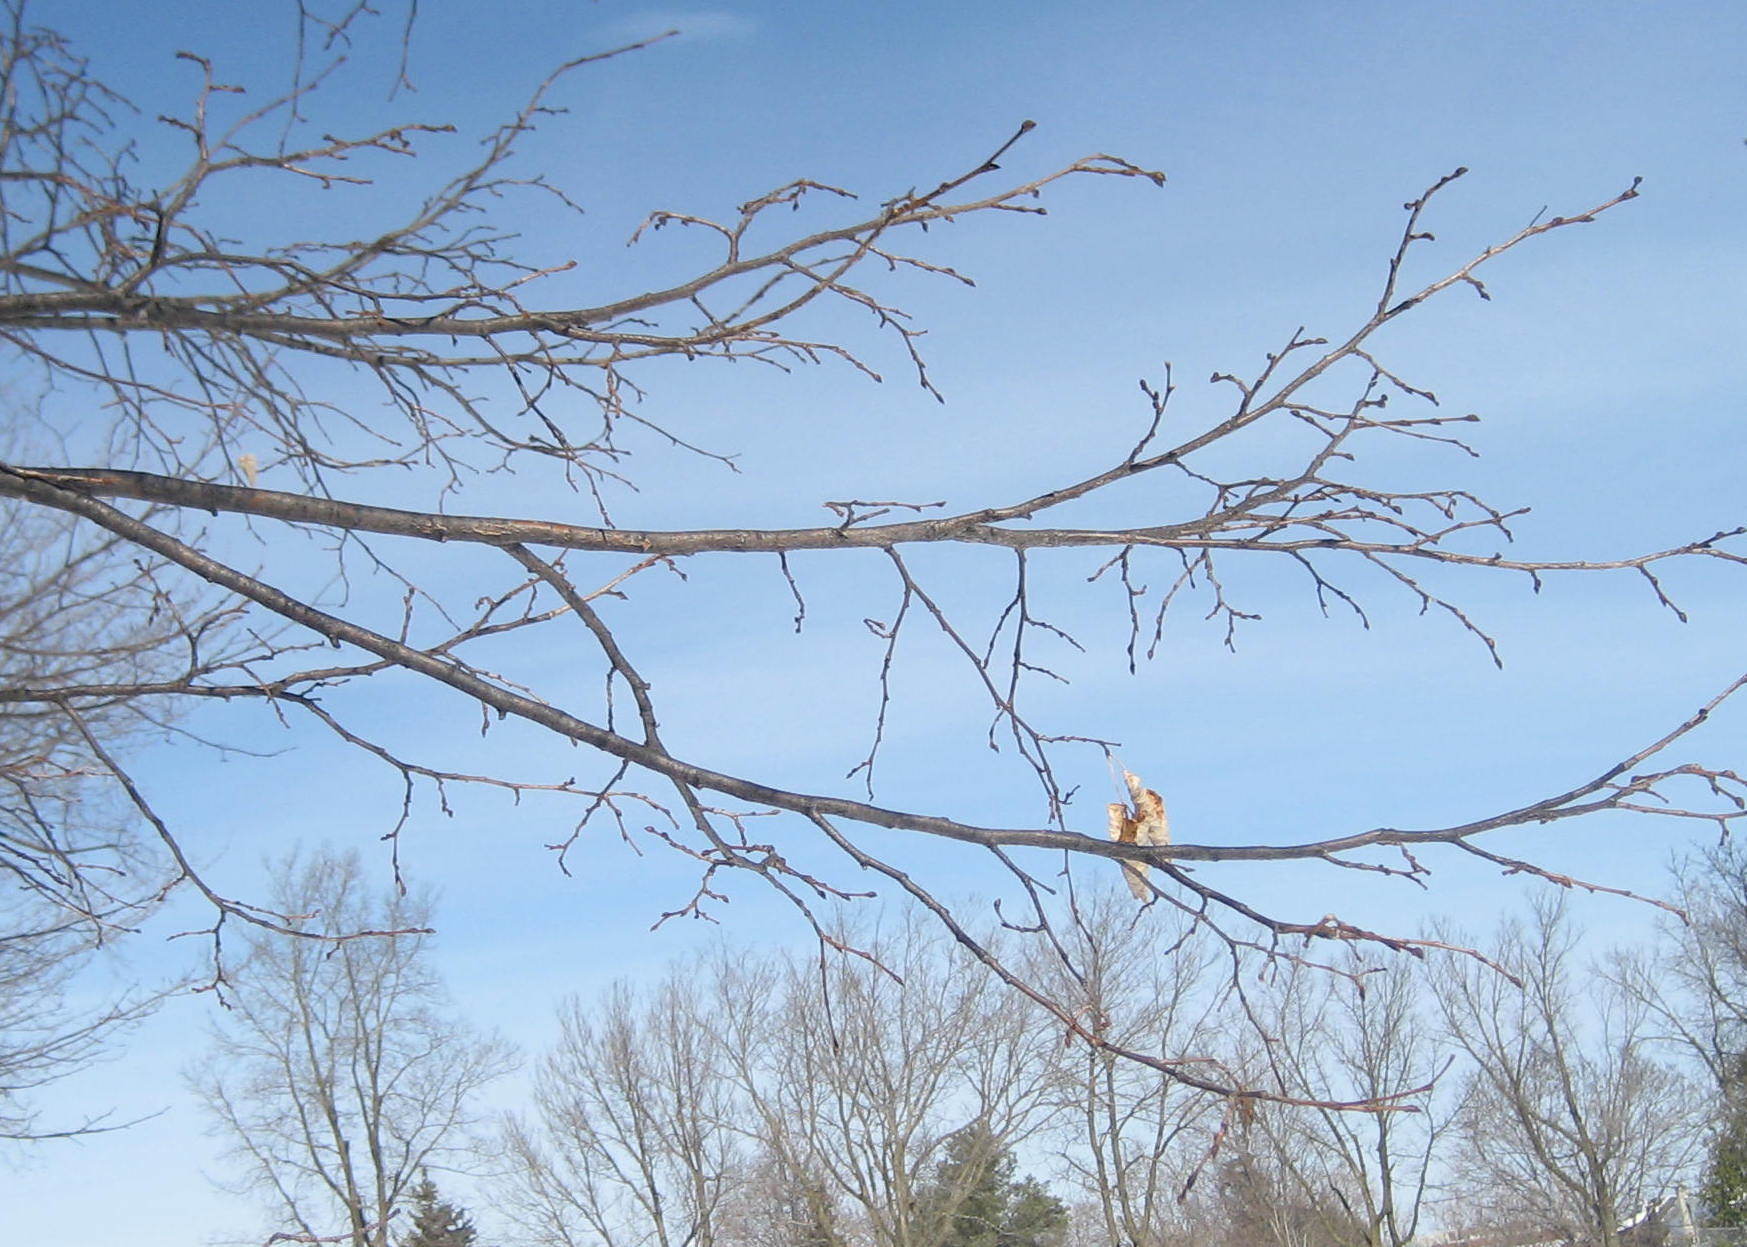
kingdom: Plantae
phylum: Tracheophyta
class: Magnoliopsida
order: Malvales
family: Malvaceae
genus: Tilia
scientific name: Tilia cordata
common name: Small-leaved lime
